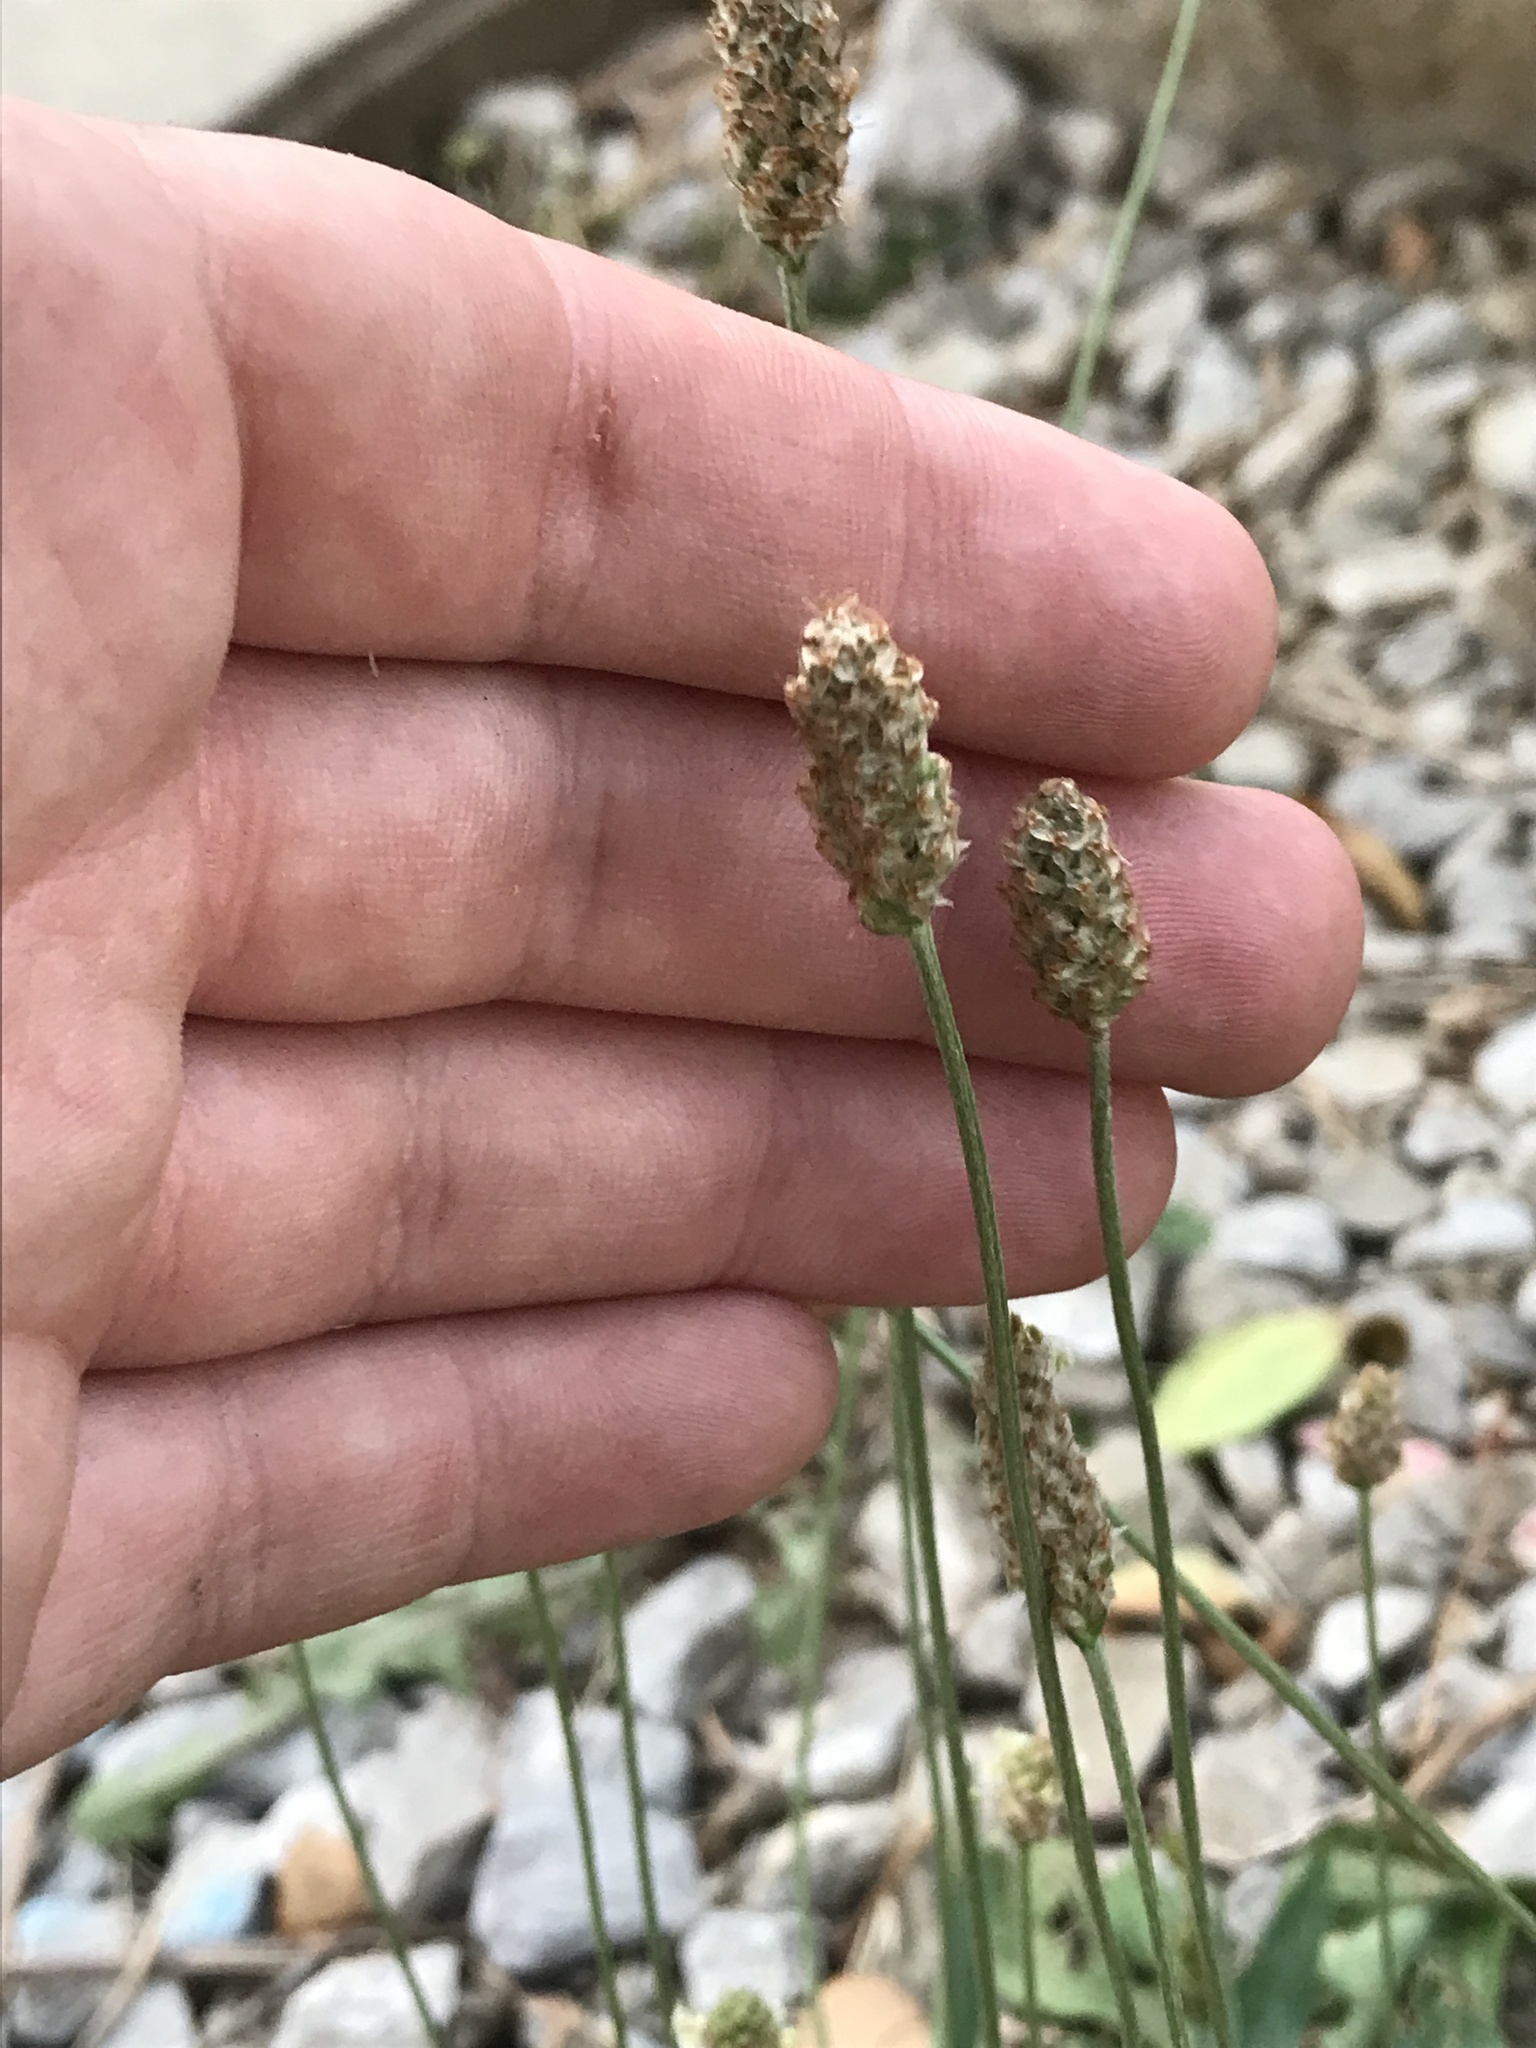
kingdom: Plantae
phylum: Tracheophyta
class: Magnoliopsida
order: Lamiales
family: Plantaginaceae
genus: Plantago
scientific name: Plantago lanceolata
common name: Ribwort plantain
